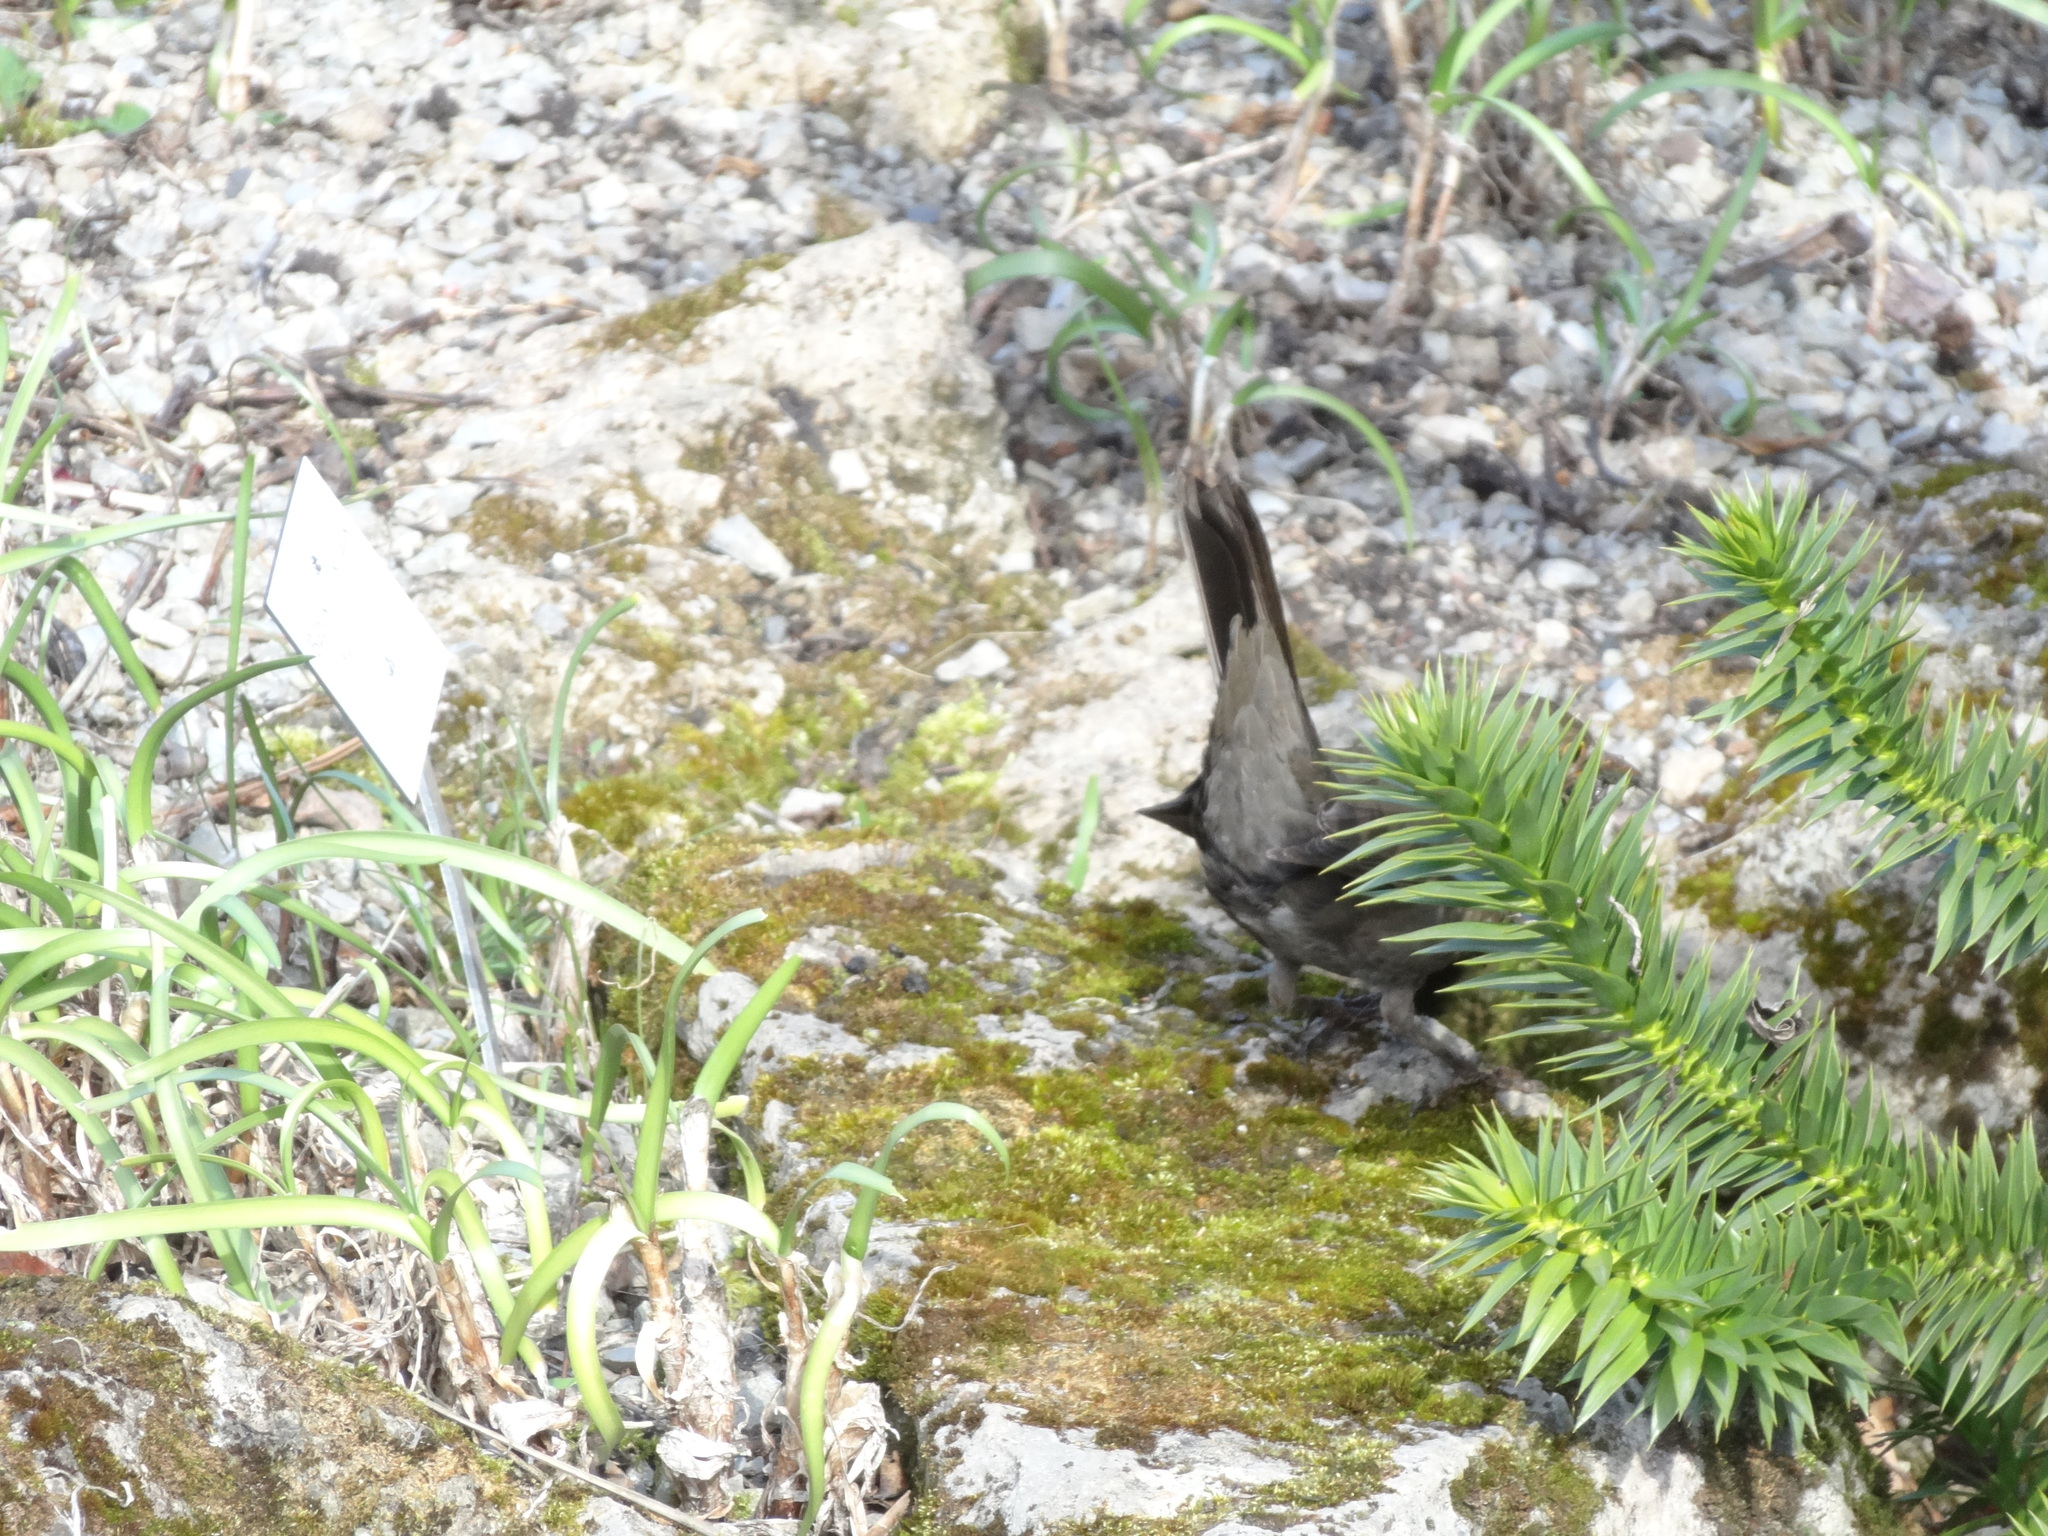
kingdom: Animalia
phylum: Chordata
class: Aves
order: Passeriformes
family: Turdidae
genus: Turdus
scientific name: Turdus merula
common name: Common blackbird
